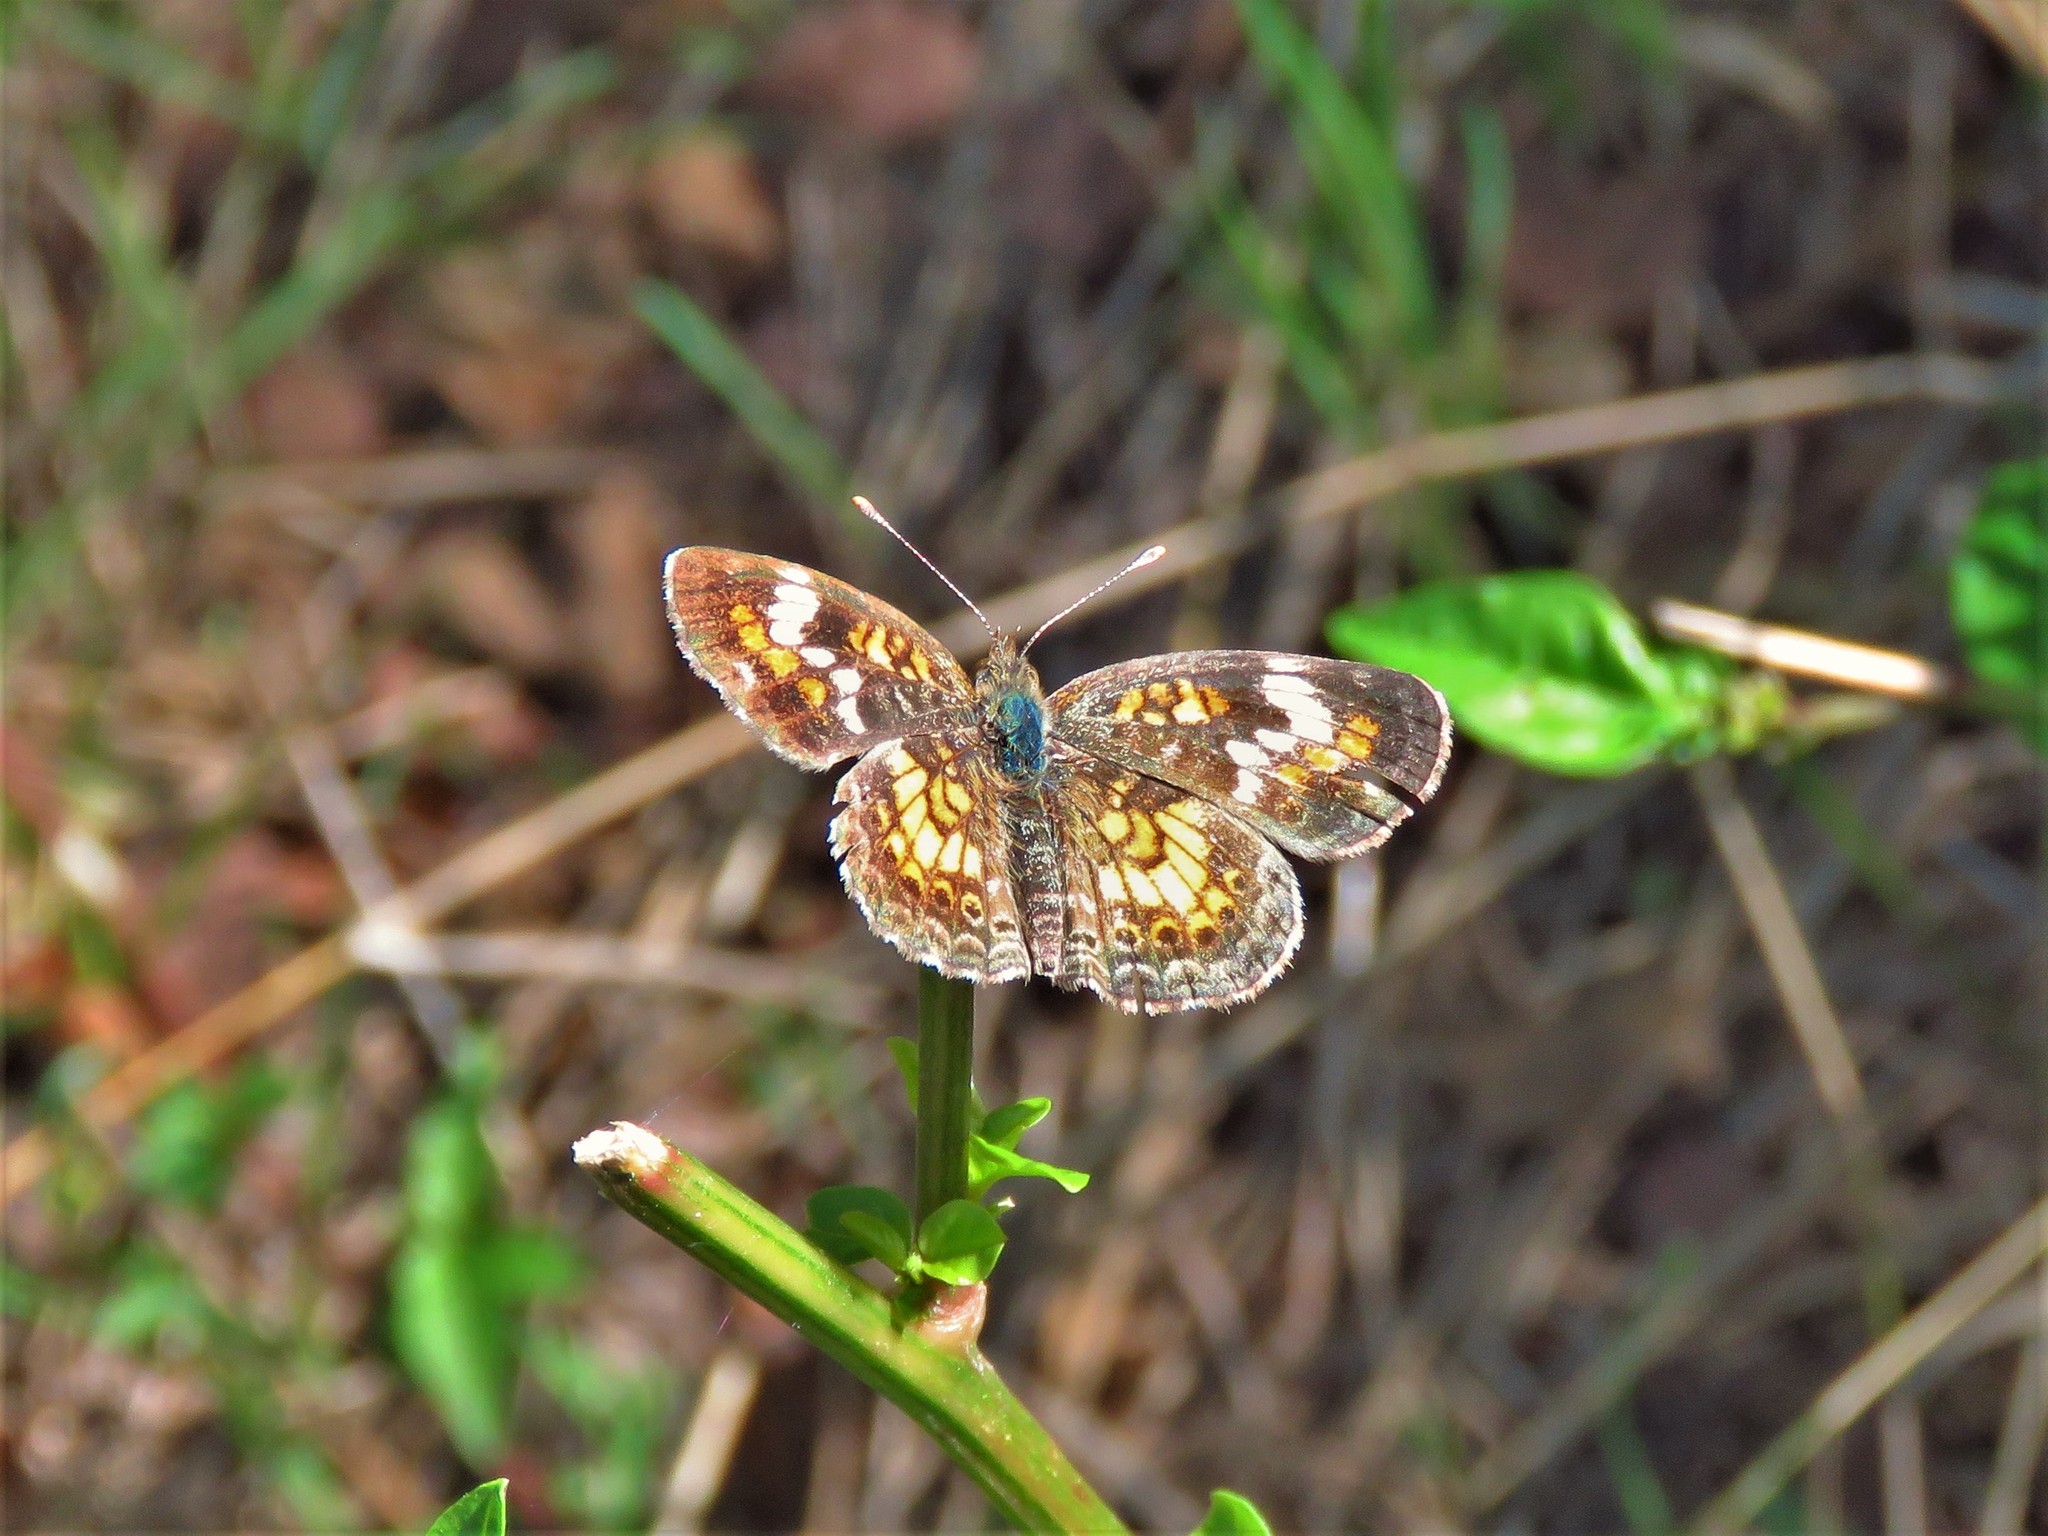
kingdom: Animalia
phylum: Arthropoda
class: Insecta
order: Lepidoptera
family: Nymphalidae
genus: Phyciodes
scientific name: Phyciodes phaon
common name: Phaon crescent
